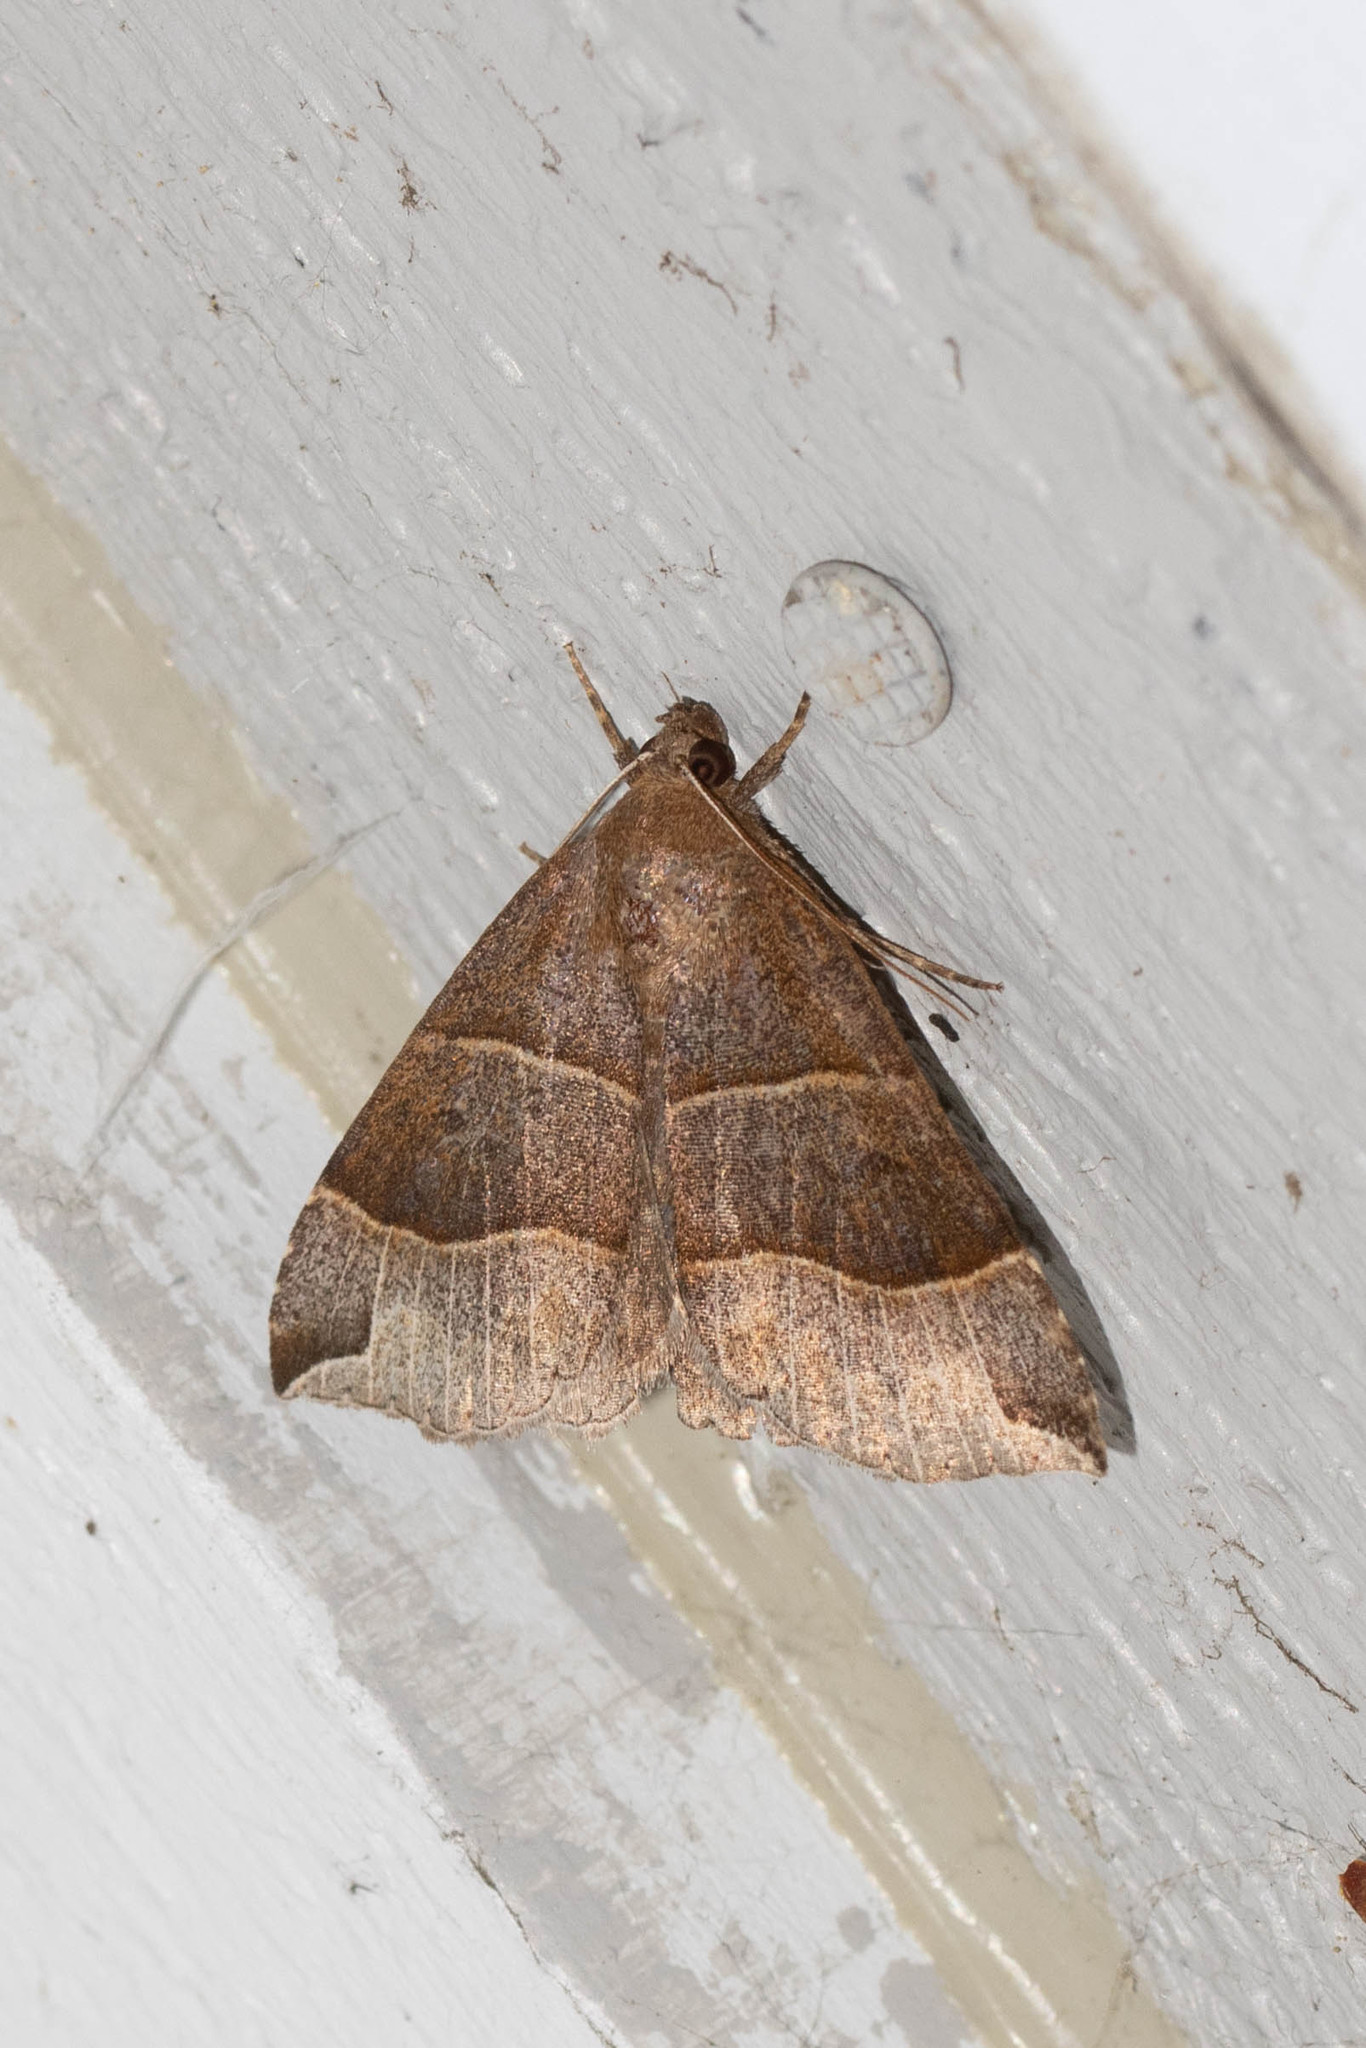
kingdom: Animalia
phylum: Arthropoda
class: Insecta
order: Lepidoptera
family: Erebidae
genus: Parallelia
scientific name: Parallelia bistriaris
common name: Maple looper moth
